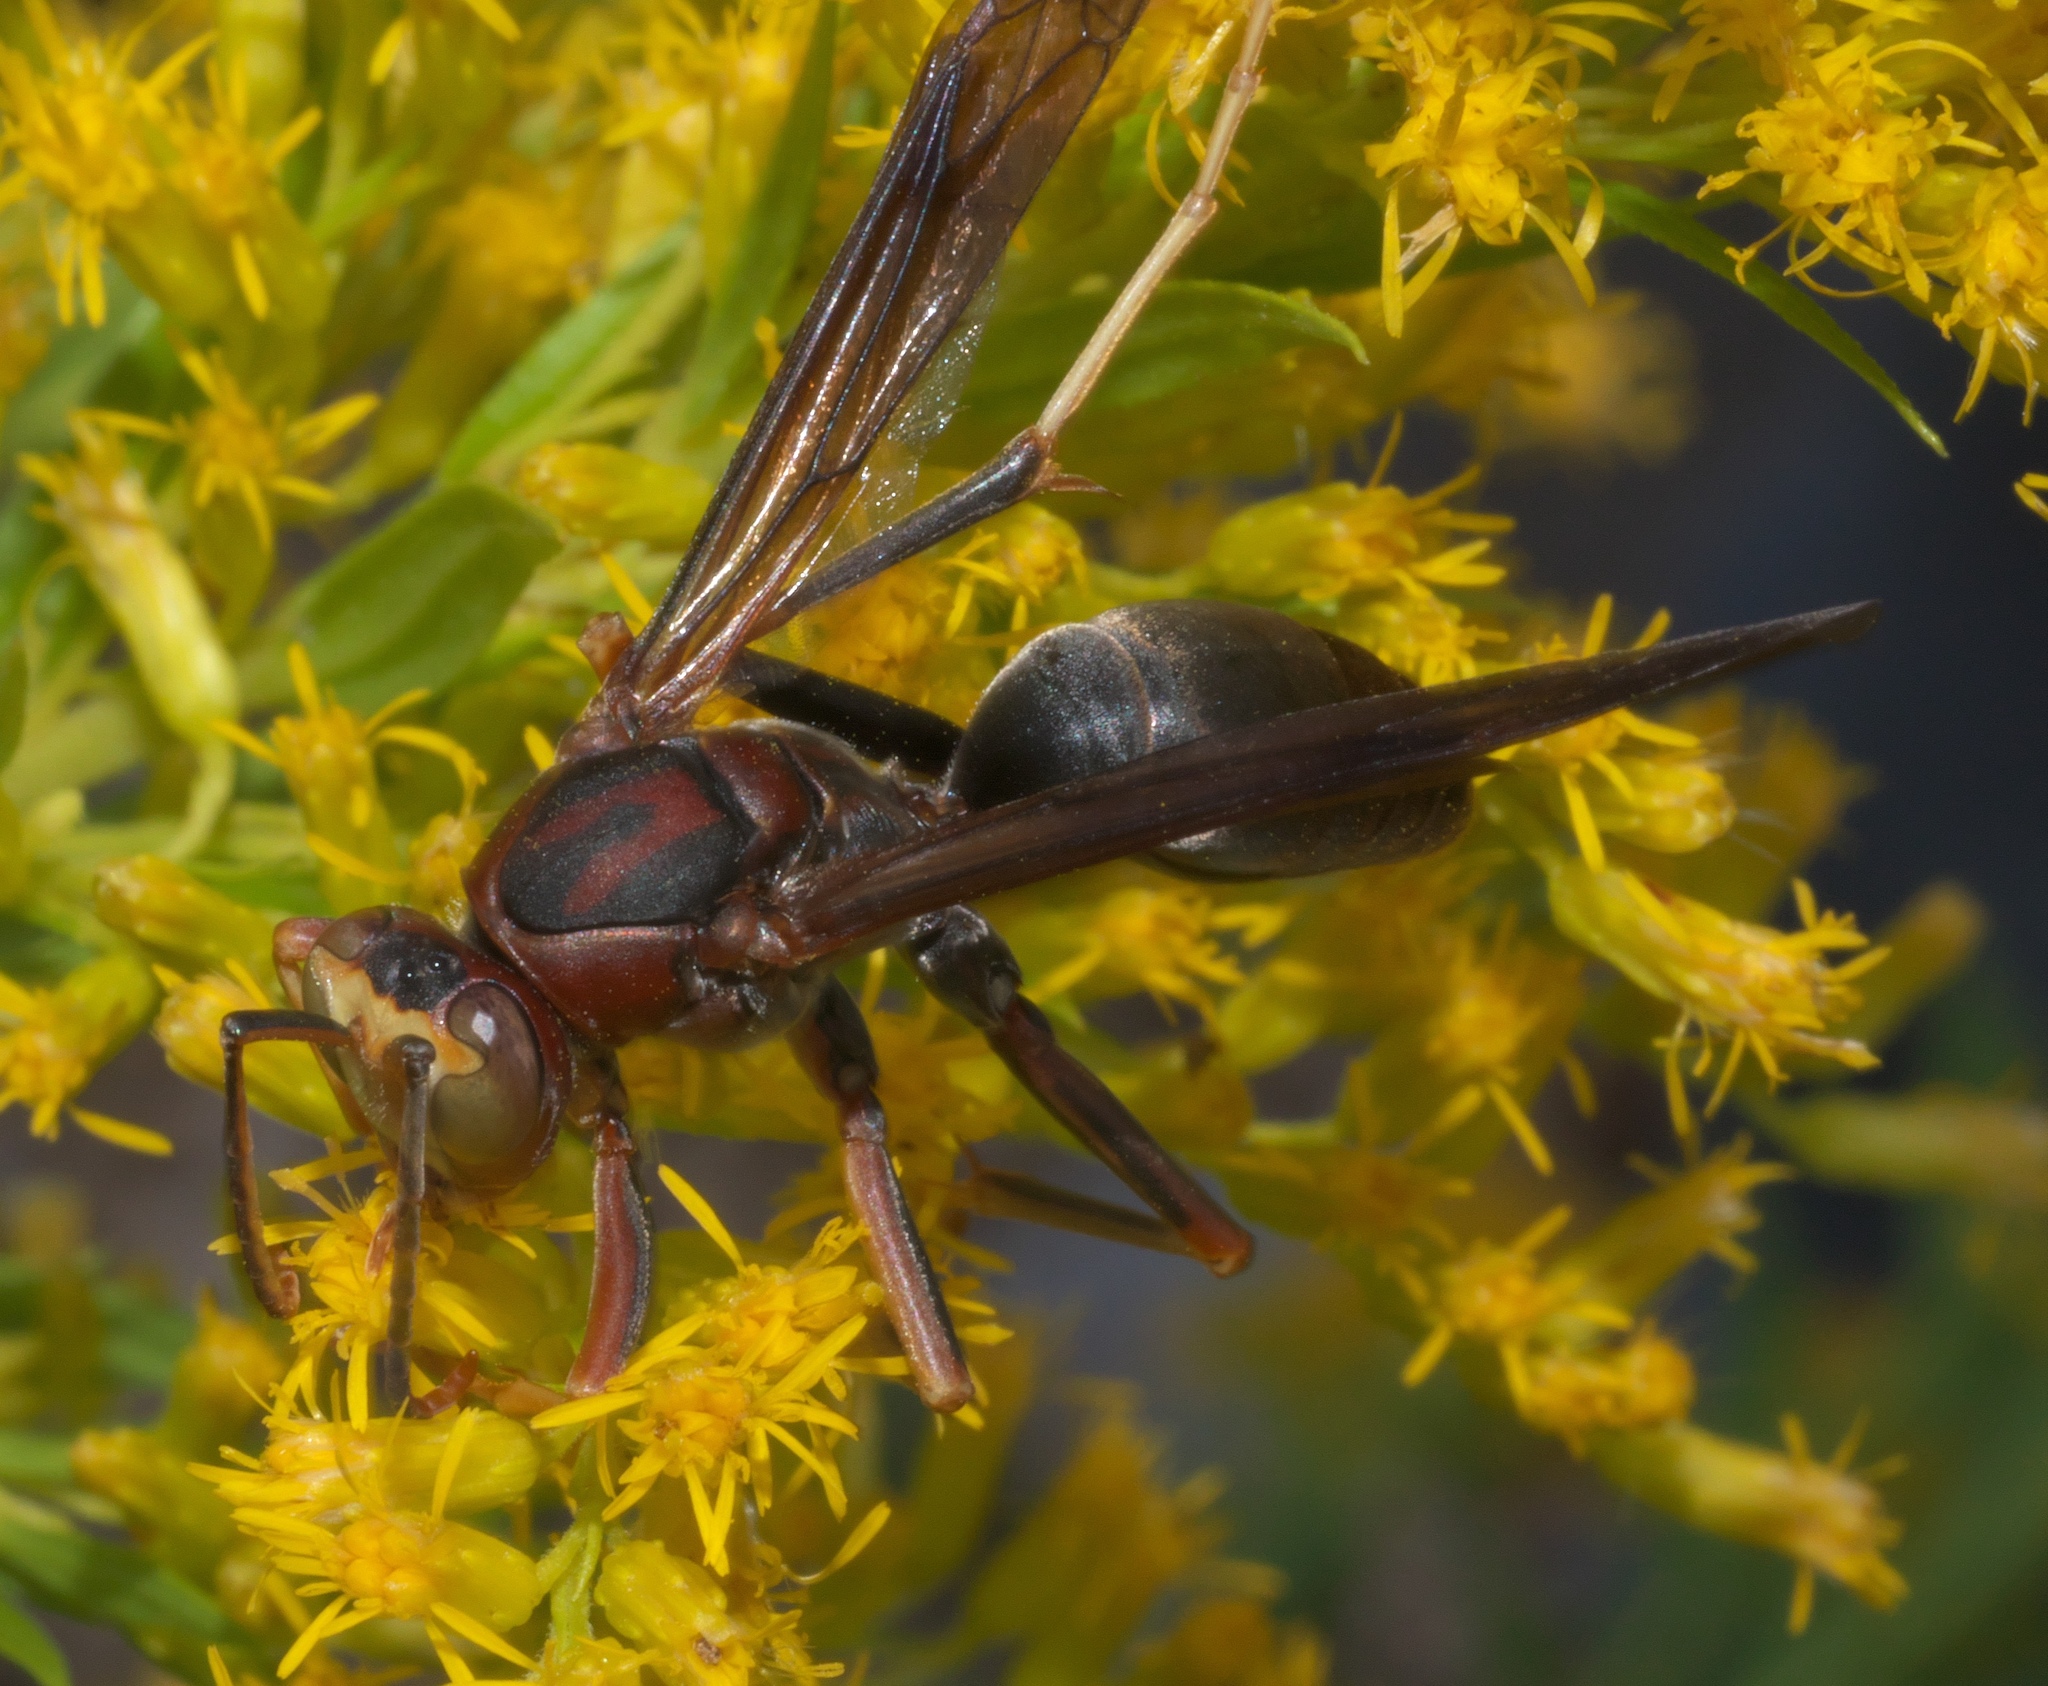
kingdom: Animalia
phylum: Arthropoda
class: Insecta
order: Hymenoptera
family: Eumenidae
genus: Polistes
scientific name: Polistes metricus
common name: Metric paper wasp
